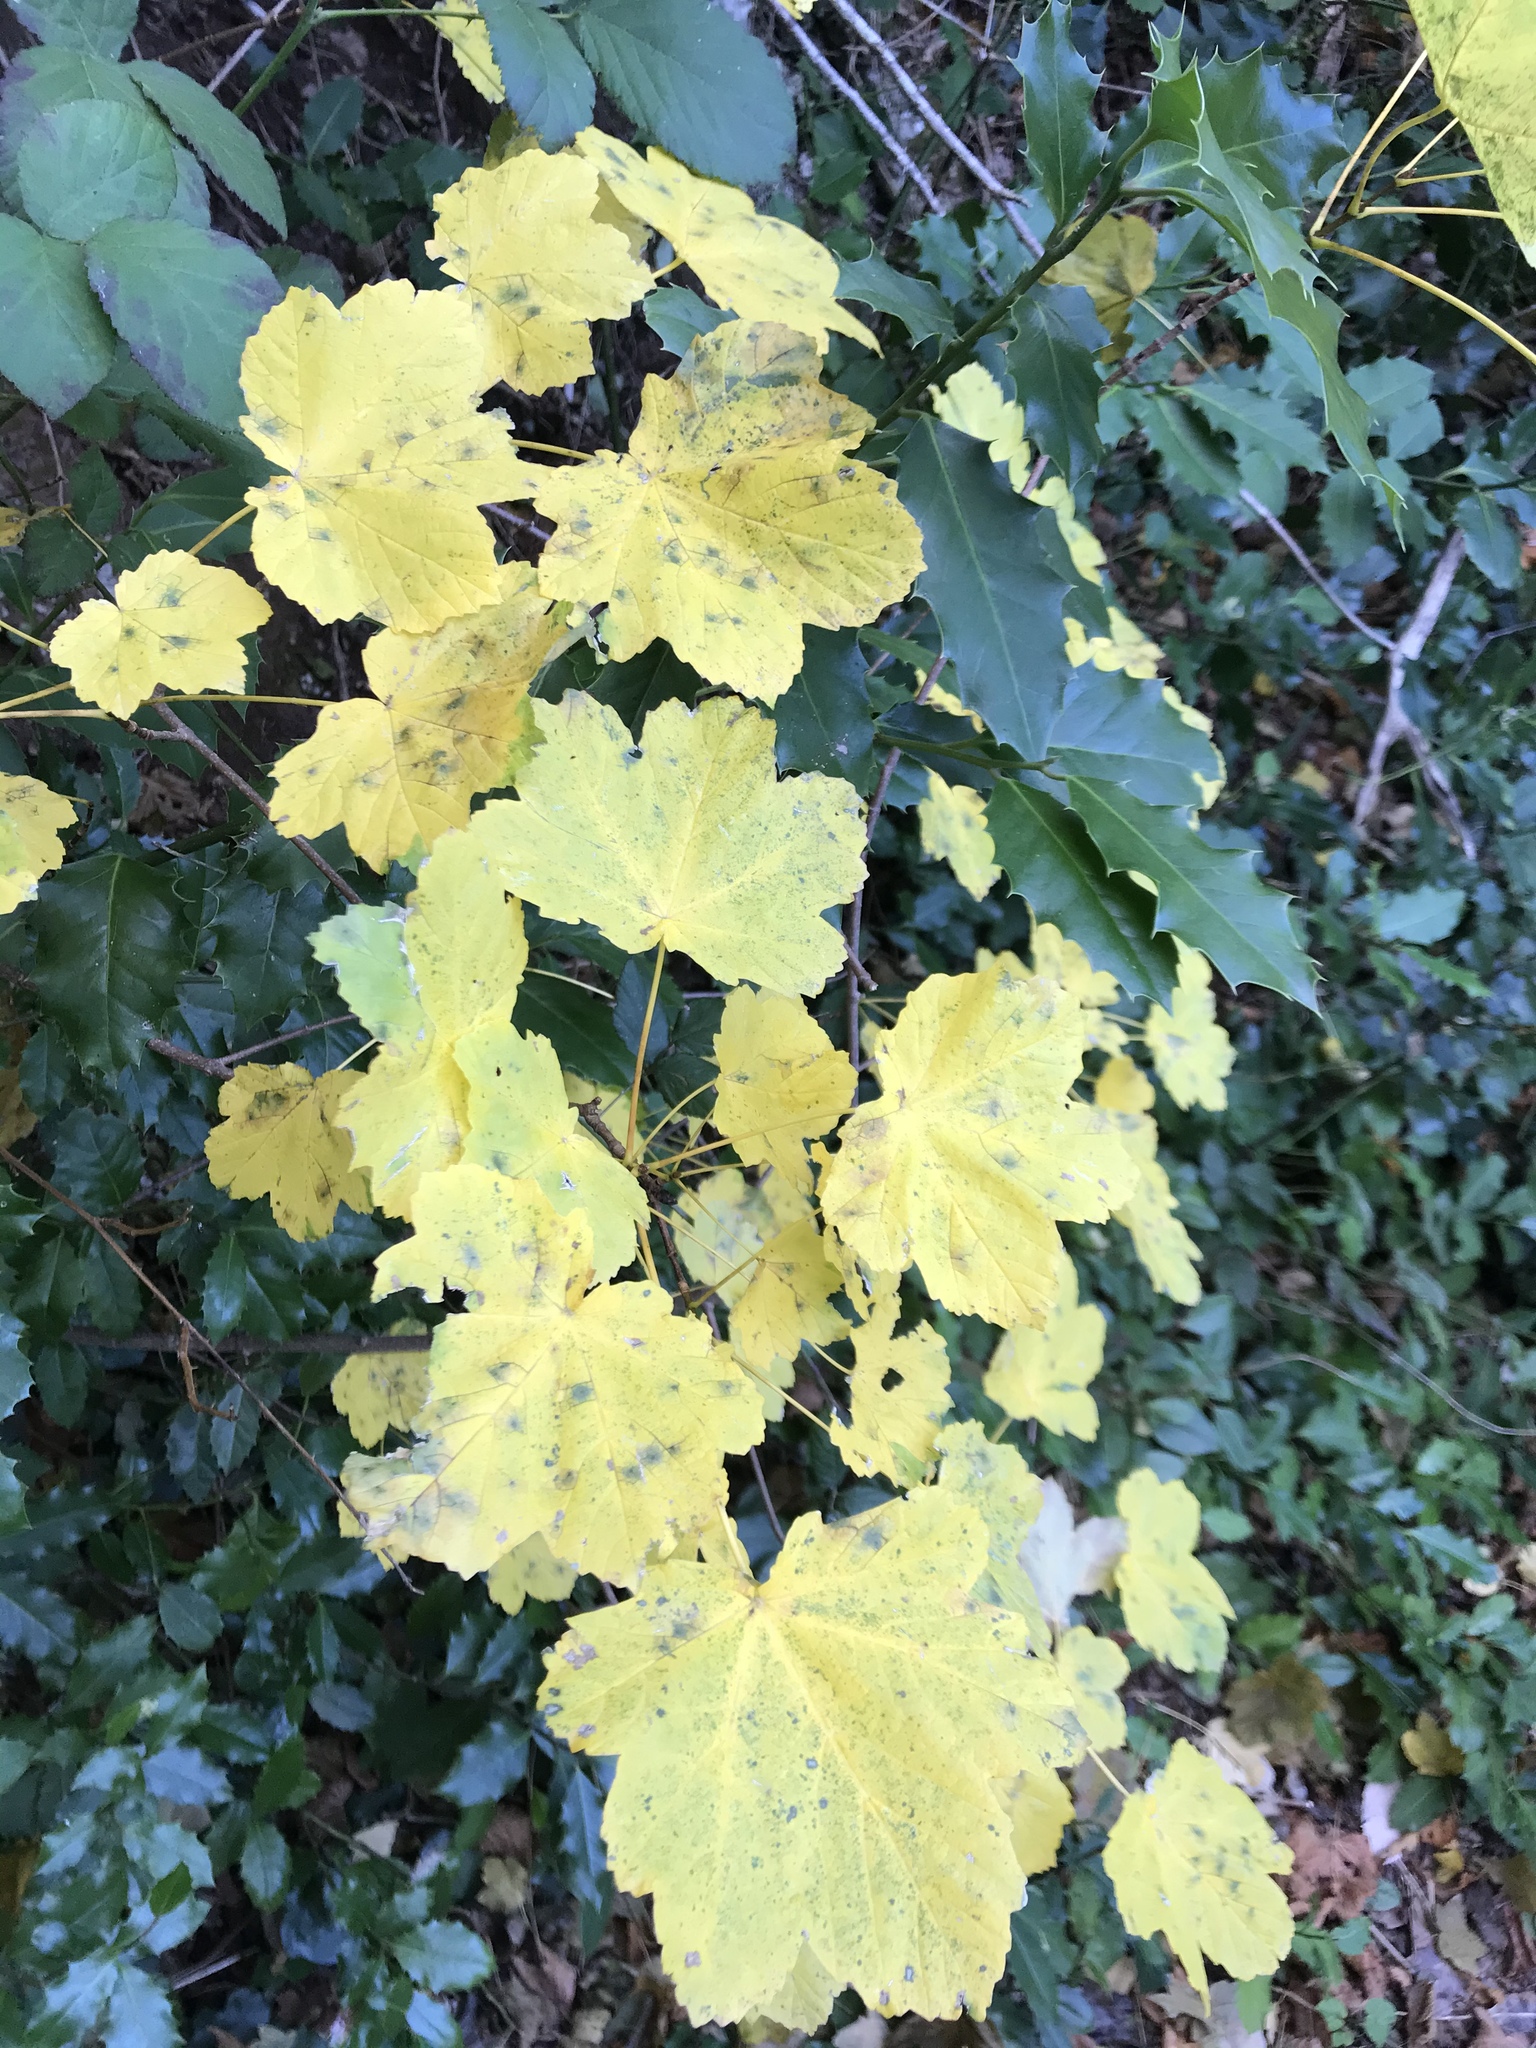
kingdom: Plantae
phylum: Tracheophyta
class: Magnoliopsida
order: Sapindales
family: Sapindaceae
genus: Acer
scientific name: Acer opalus
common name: Italian maple
